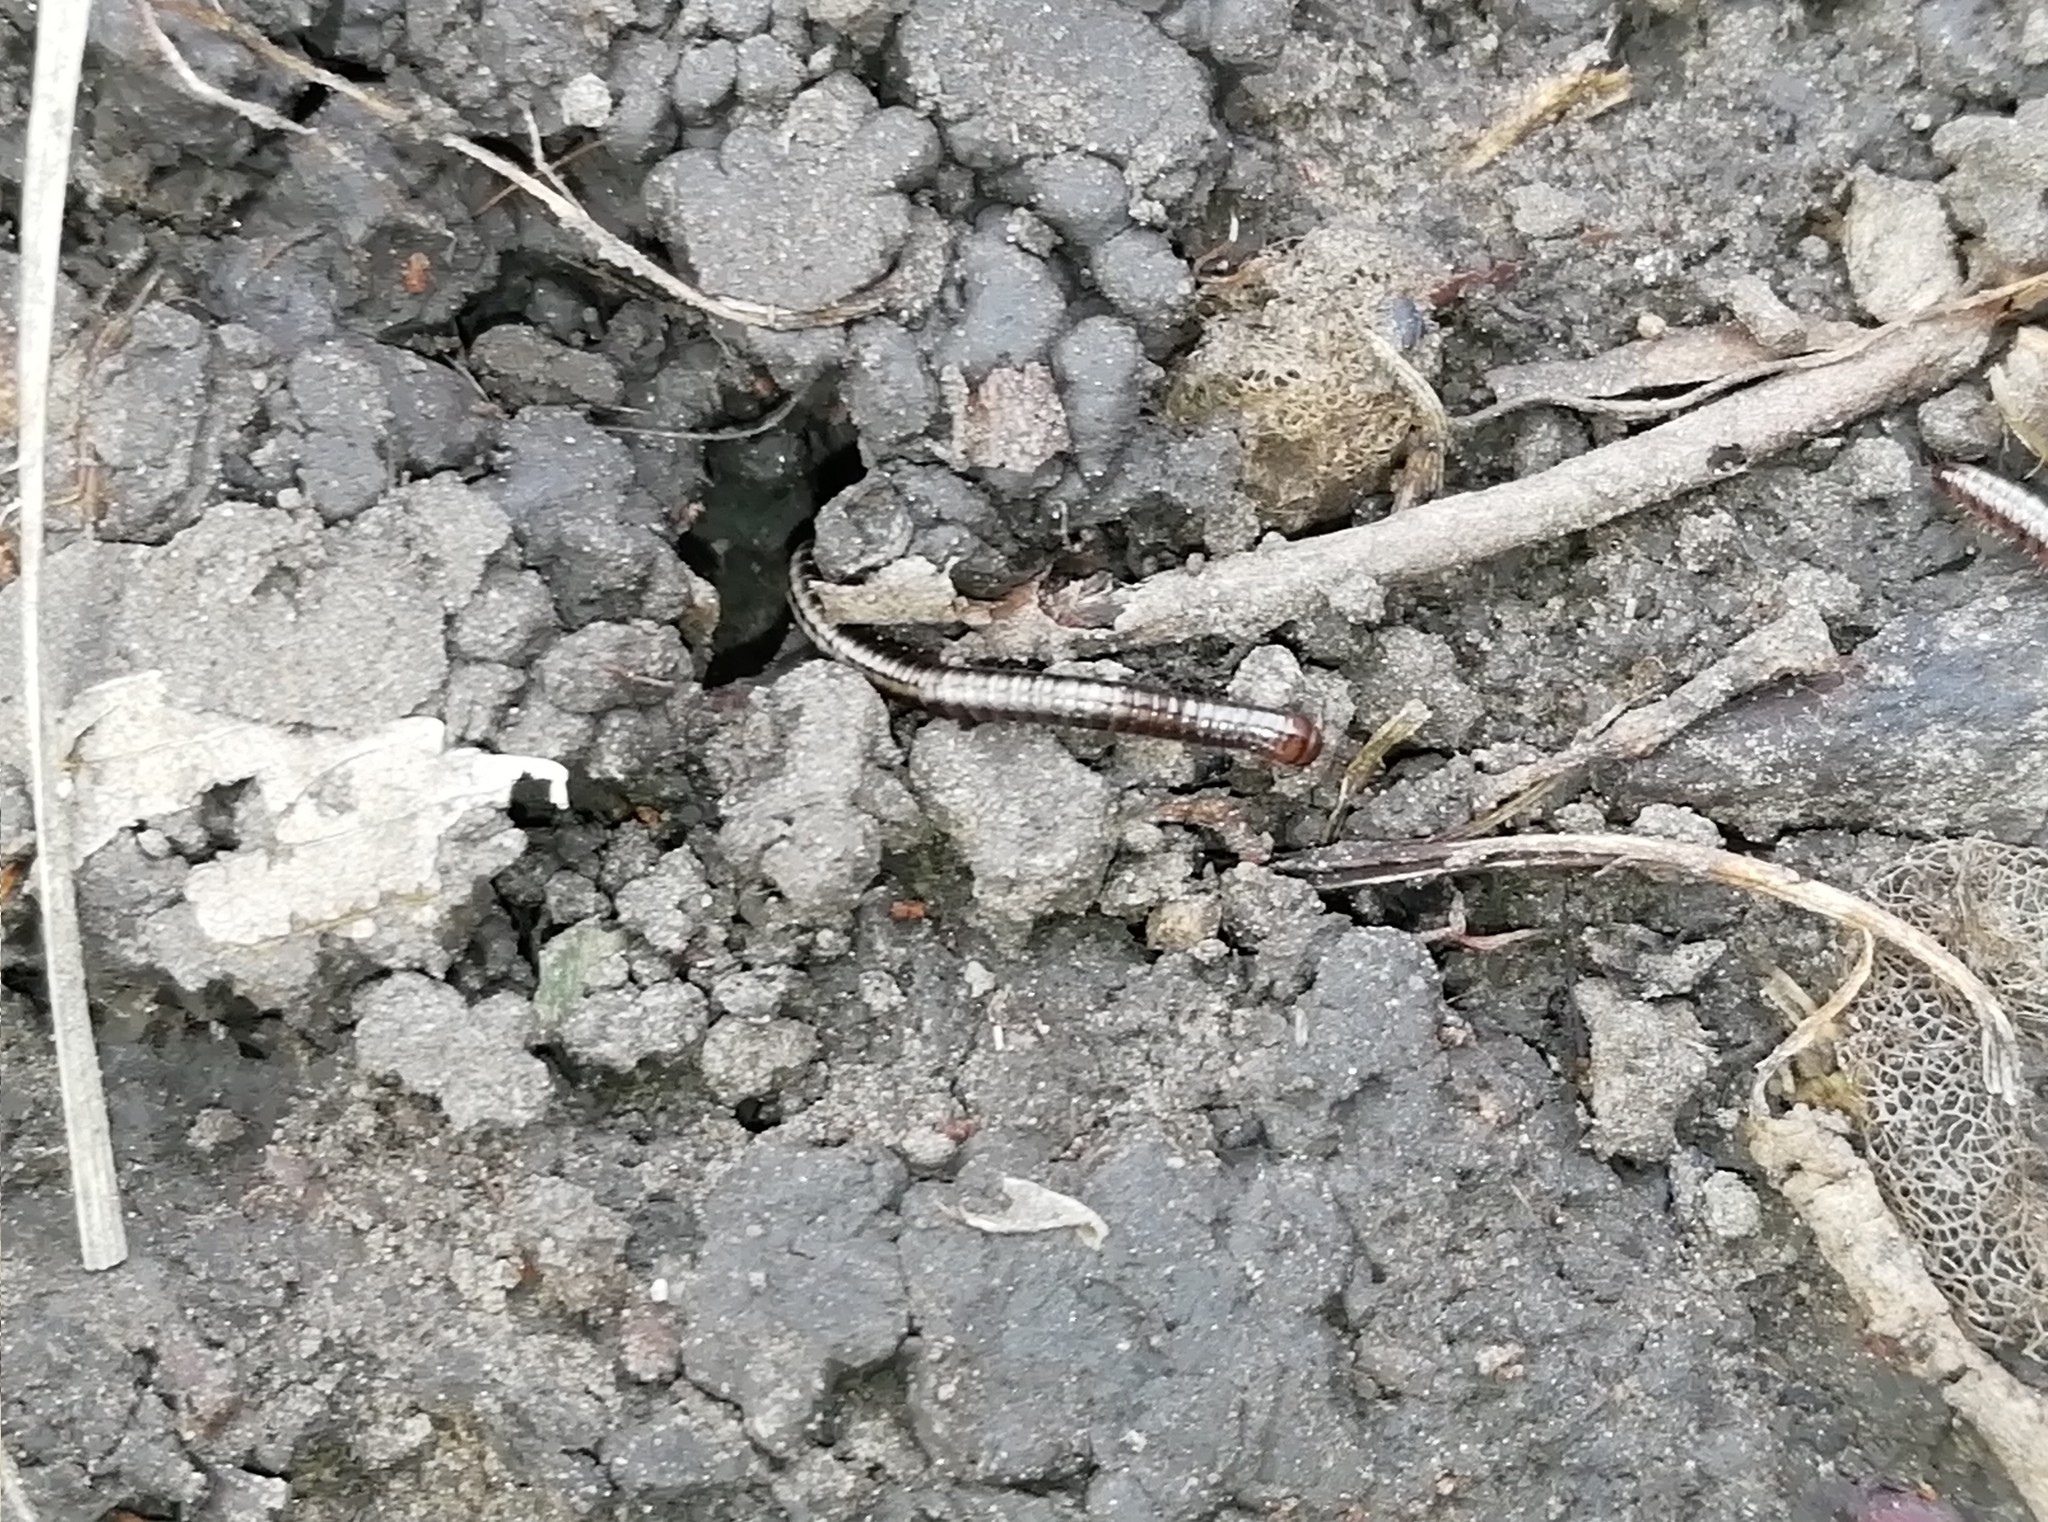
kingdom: Animalia
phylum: Arthropoda
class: Diplopoda
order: Julida
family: Julidae
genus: Brachyiulus
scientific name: Brachyiulus jawlowskii
